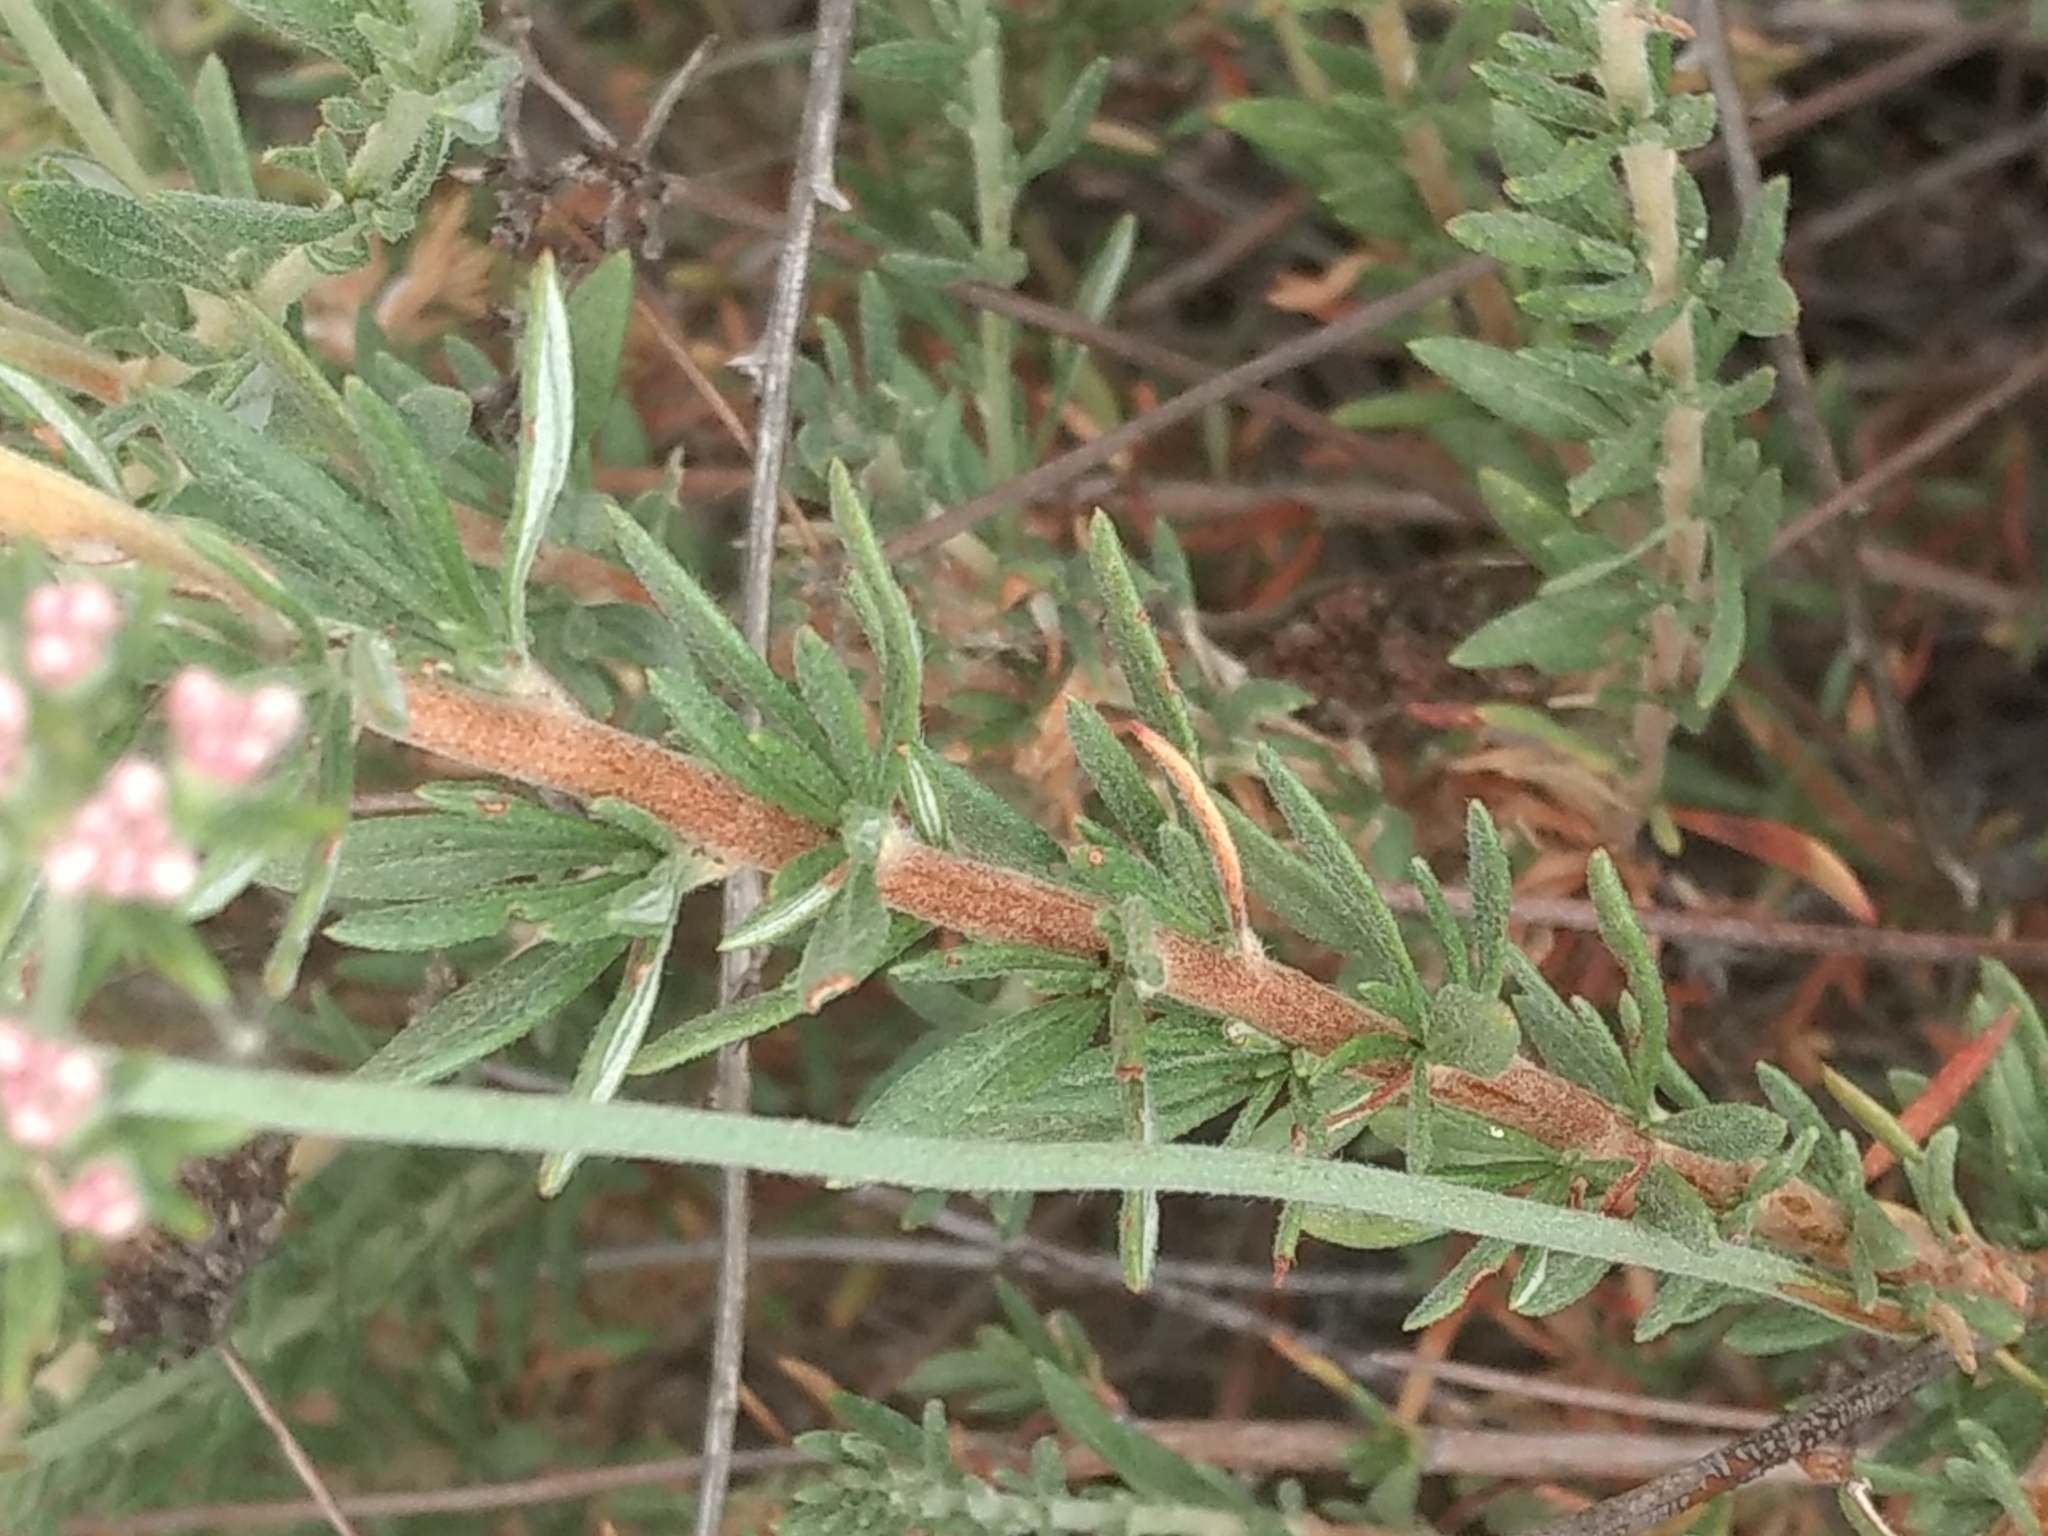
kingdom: Plantae
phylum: Tracheophyta
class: Magnoliopsida
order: Caryophyllales
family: Polygonaceae
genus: Eriogonum
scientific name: Eriogonum fasciculatum
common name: California wild buckwheat
